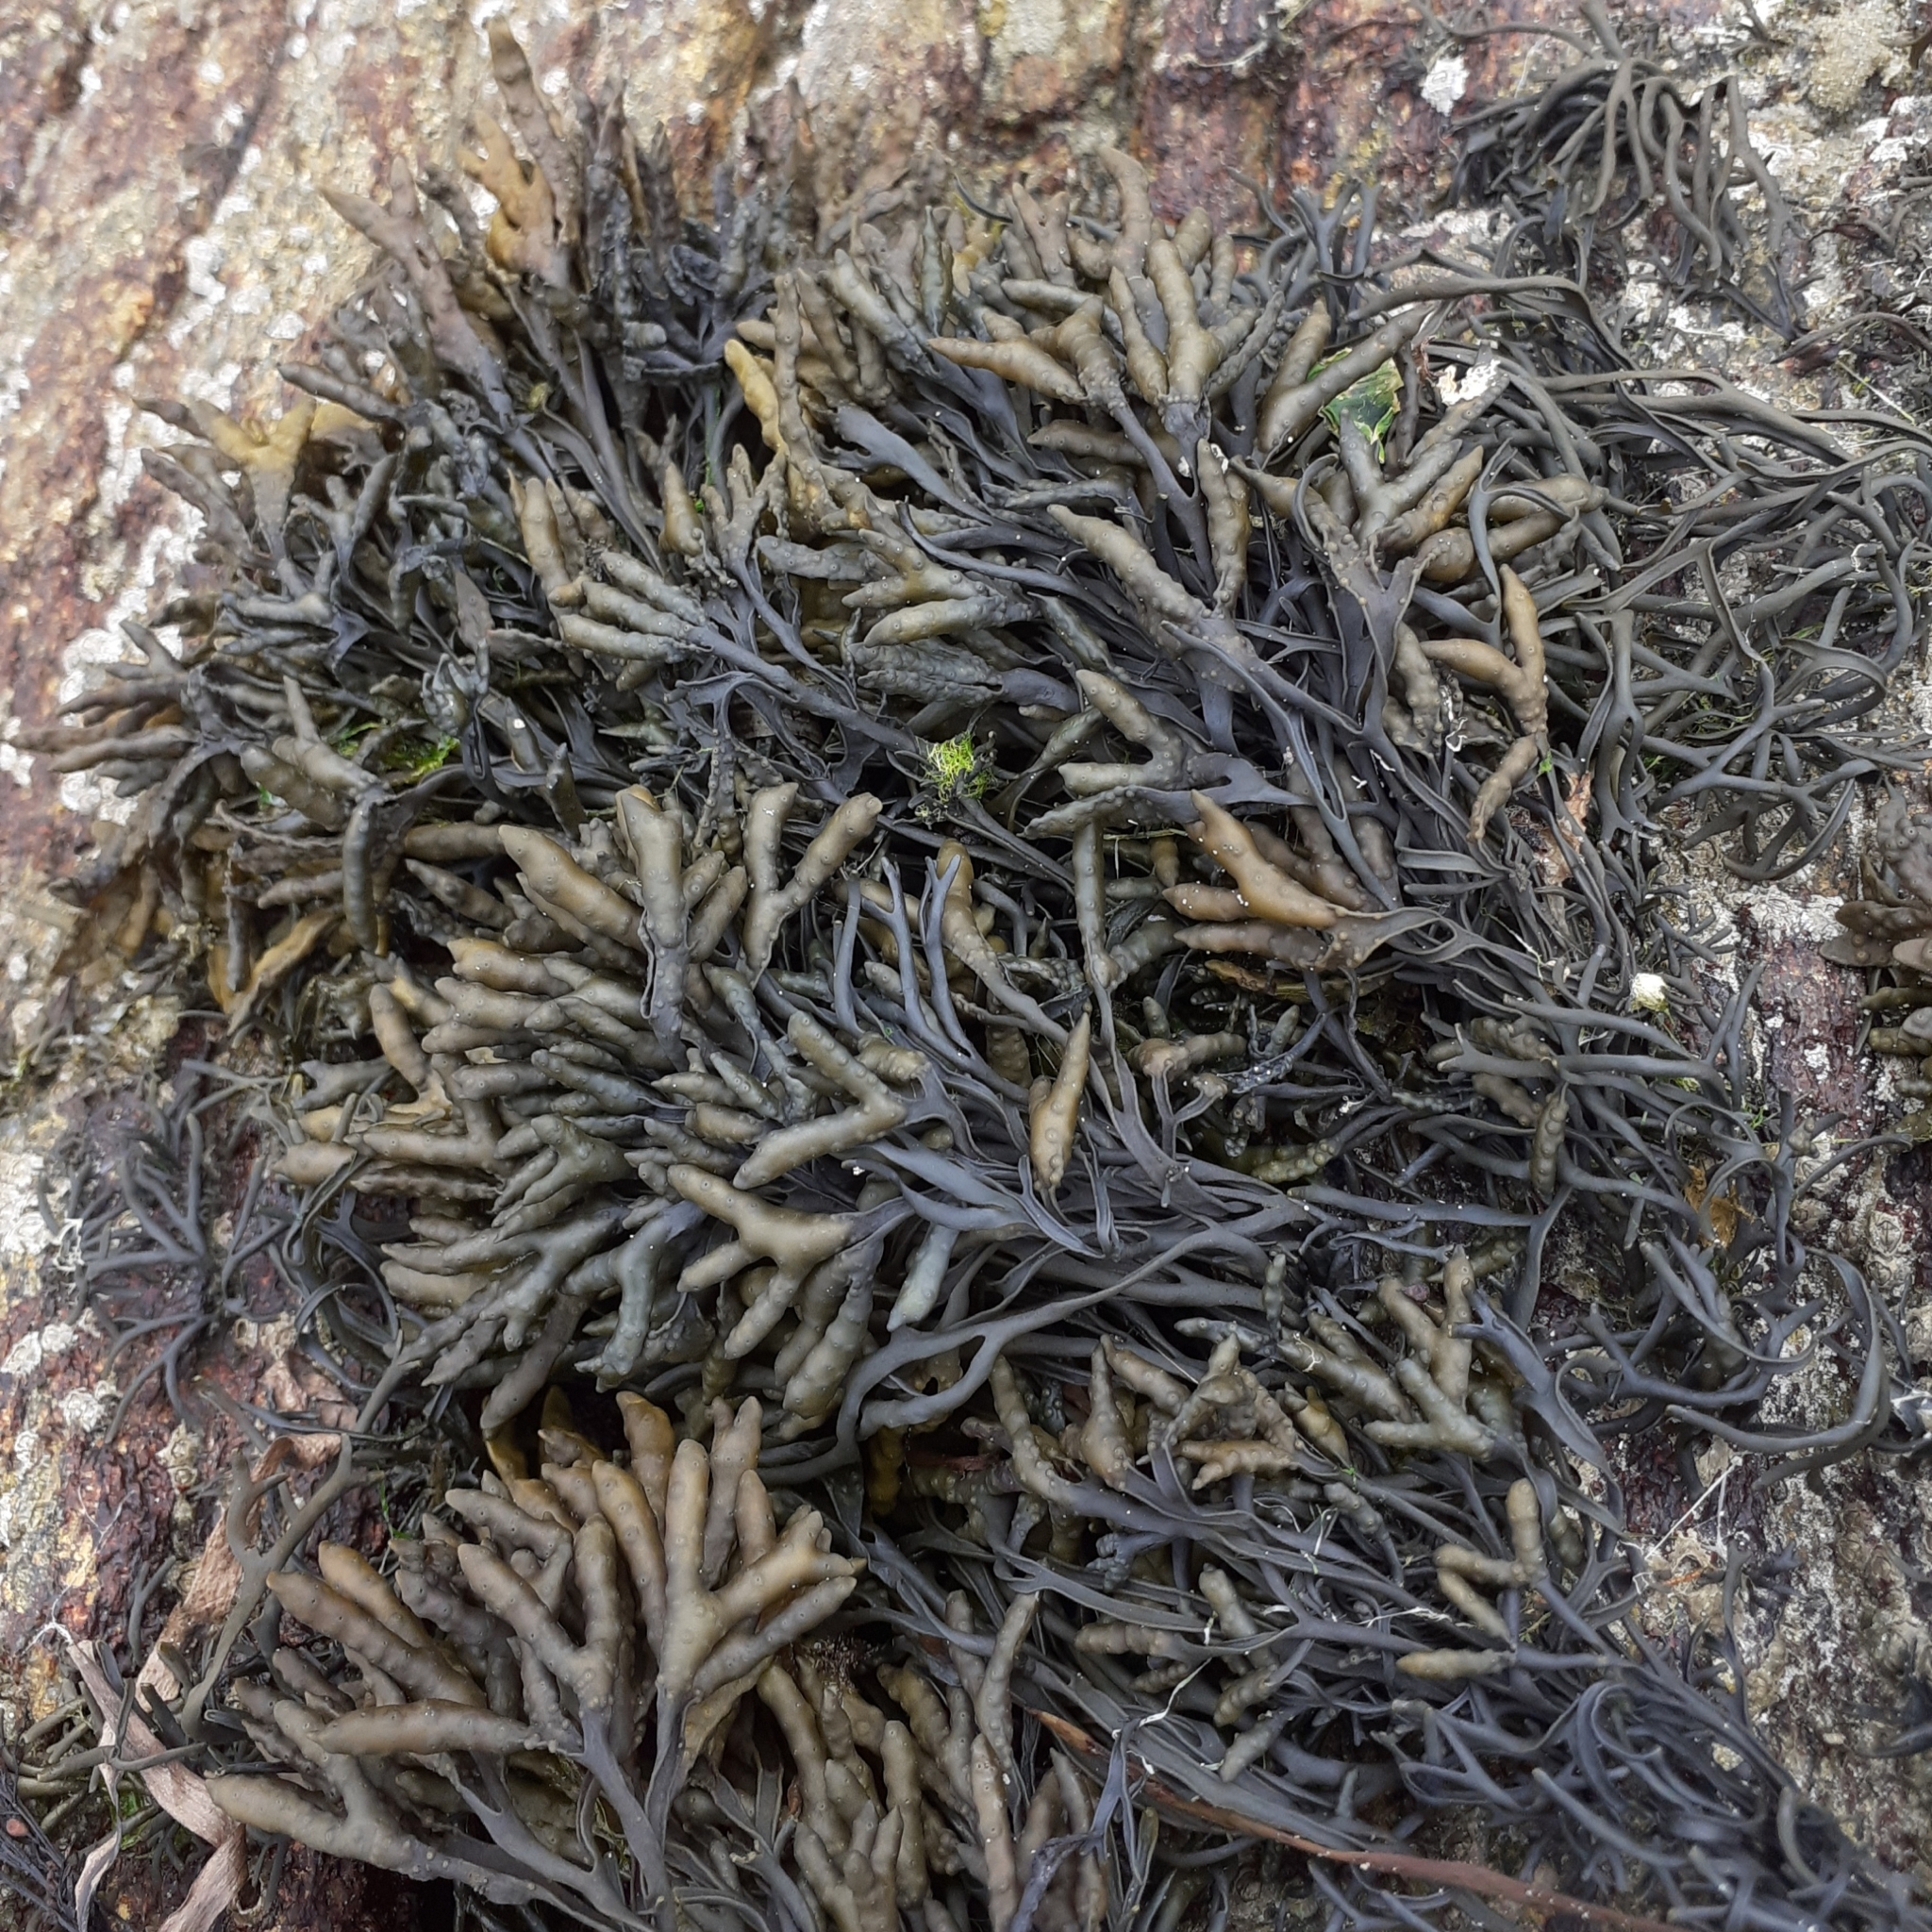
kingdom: Chromista
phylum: Ochrophyta
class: Phaeophyceae
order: Fucales
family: Fucaceae
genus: Pelvetia
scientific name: Pelvetia canaliculata
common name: Channelled wrack
